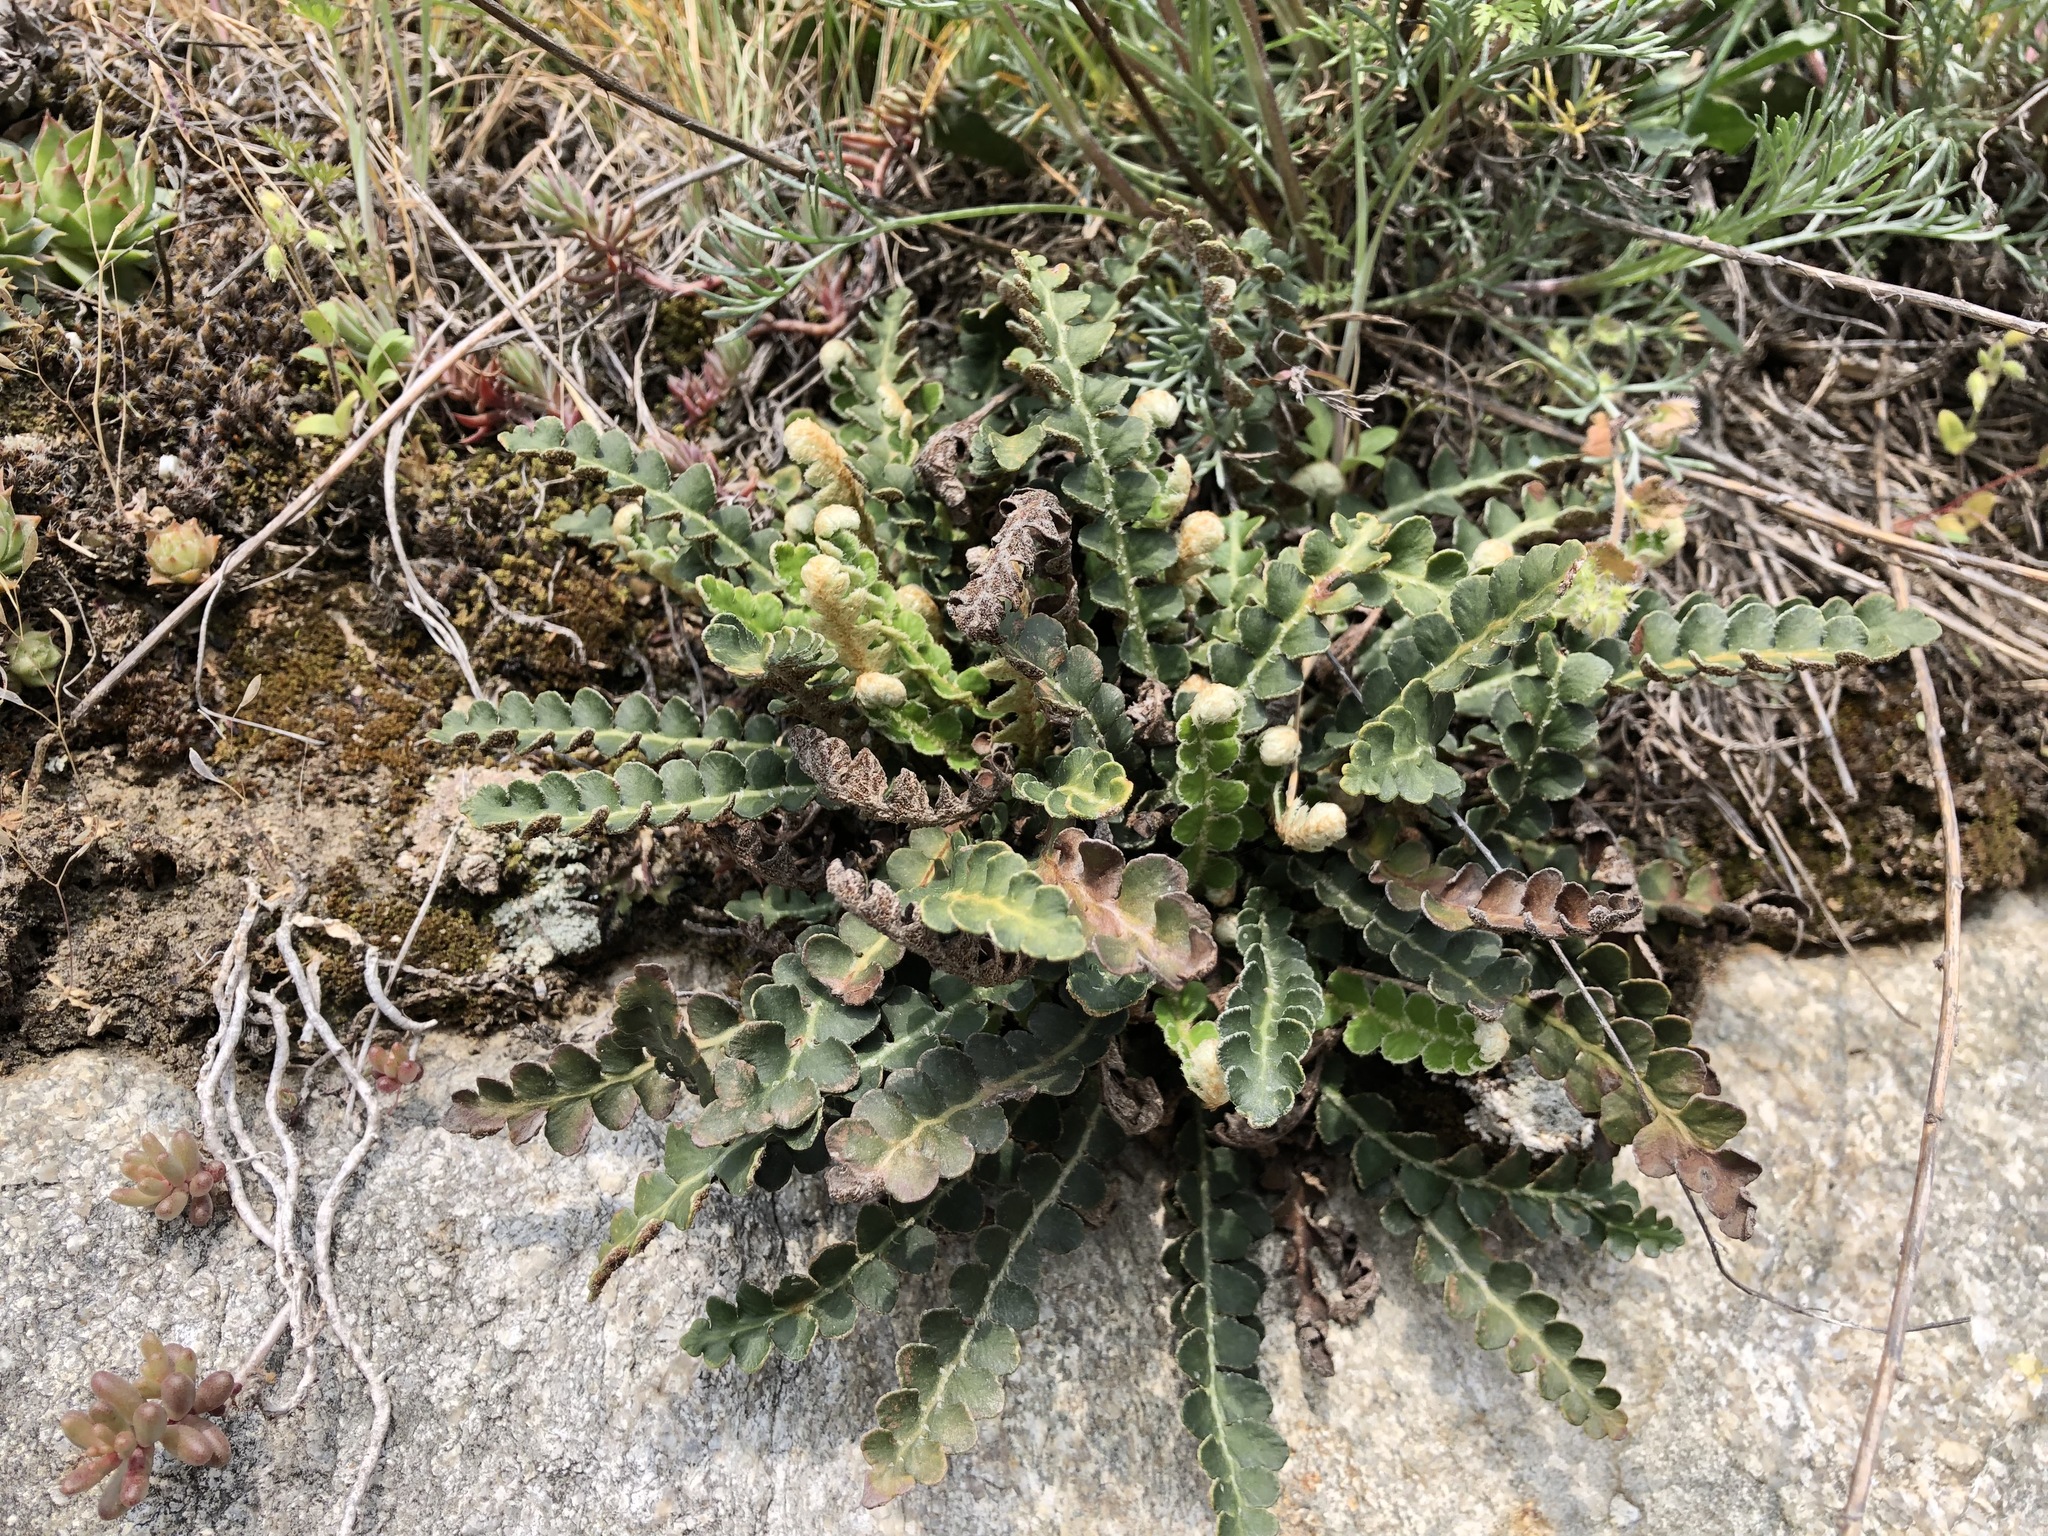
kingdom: Plantae
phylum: Tracheophyta
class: Polypodiopsida
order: Polypodiales
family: Aspleniaceae
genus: Asplenium
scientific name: Asplenium ceterach
